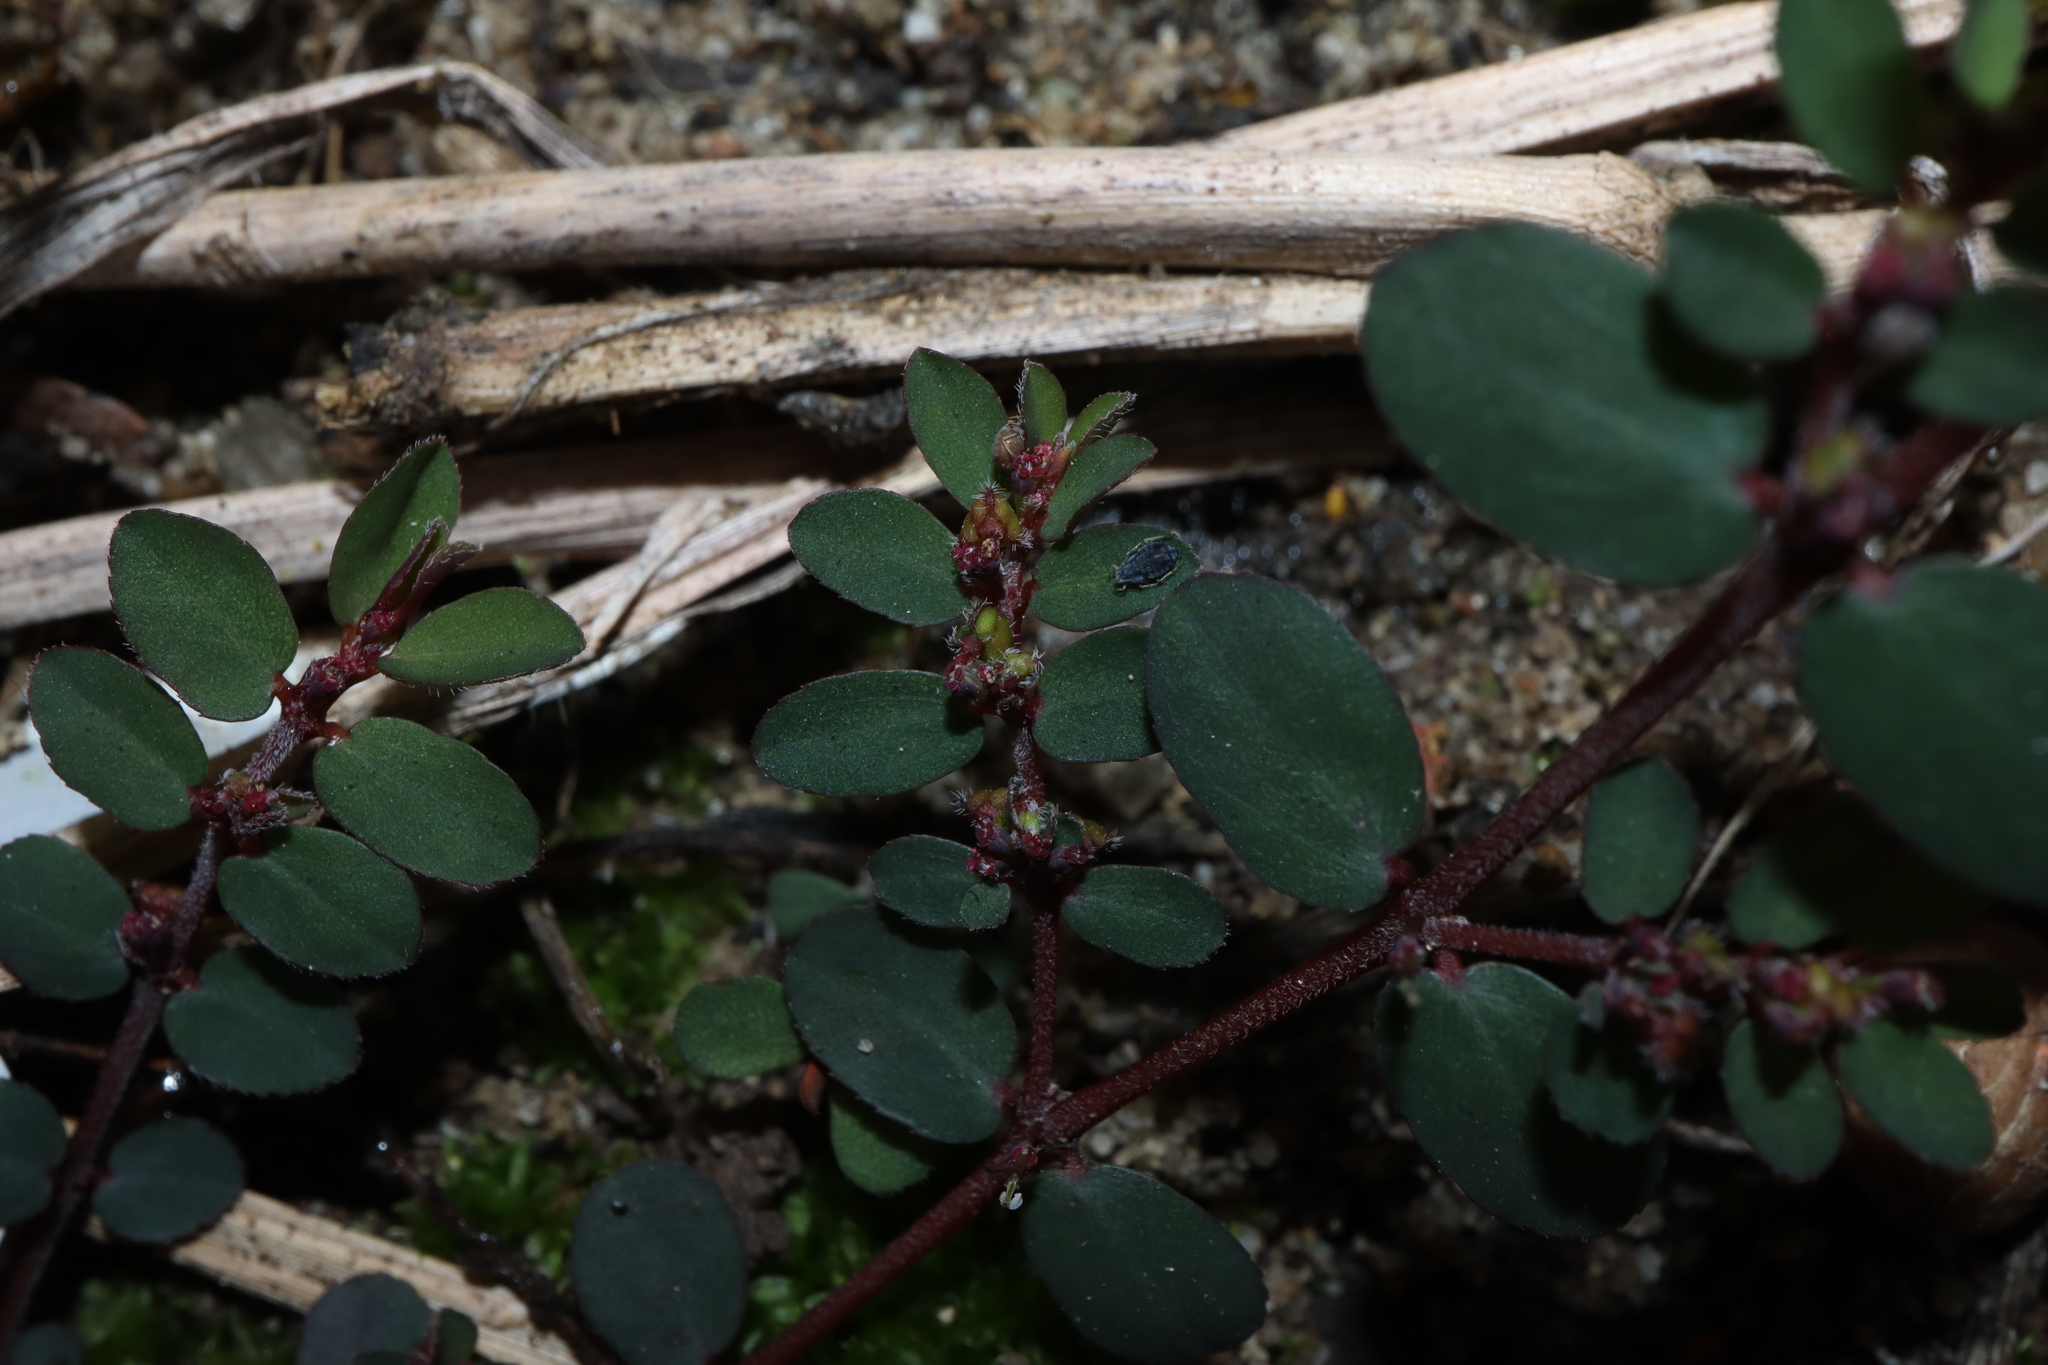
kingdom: Plantae
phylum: Tracheophyta
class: Magnoliopsida
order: Malpighiales
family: Euphorbiaceae
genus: Euphorbia
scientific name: Euphorbia prostrata
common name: Prostrate sandmat
